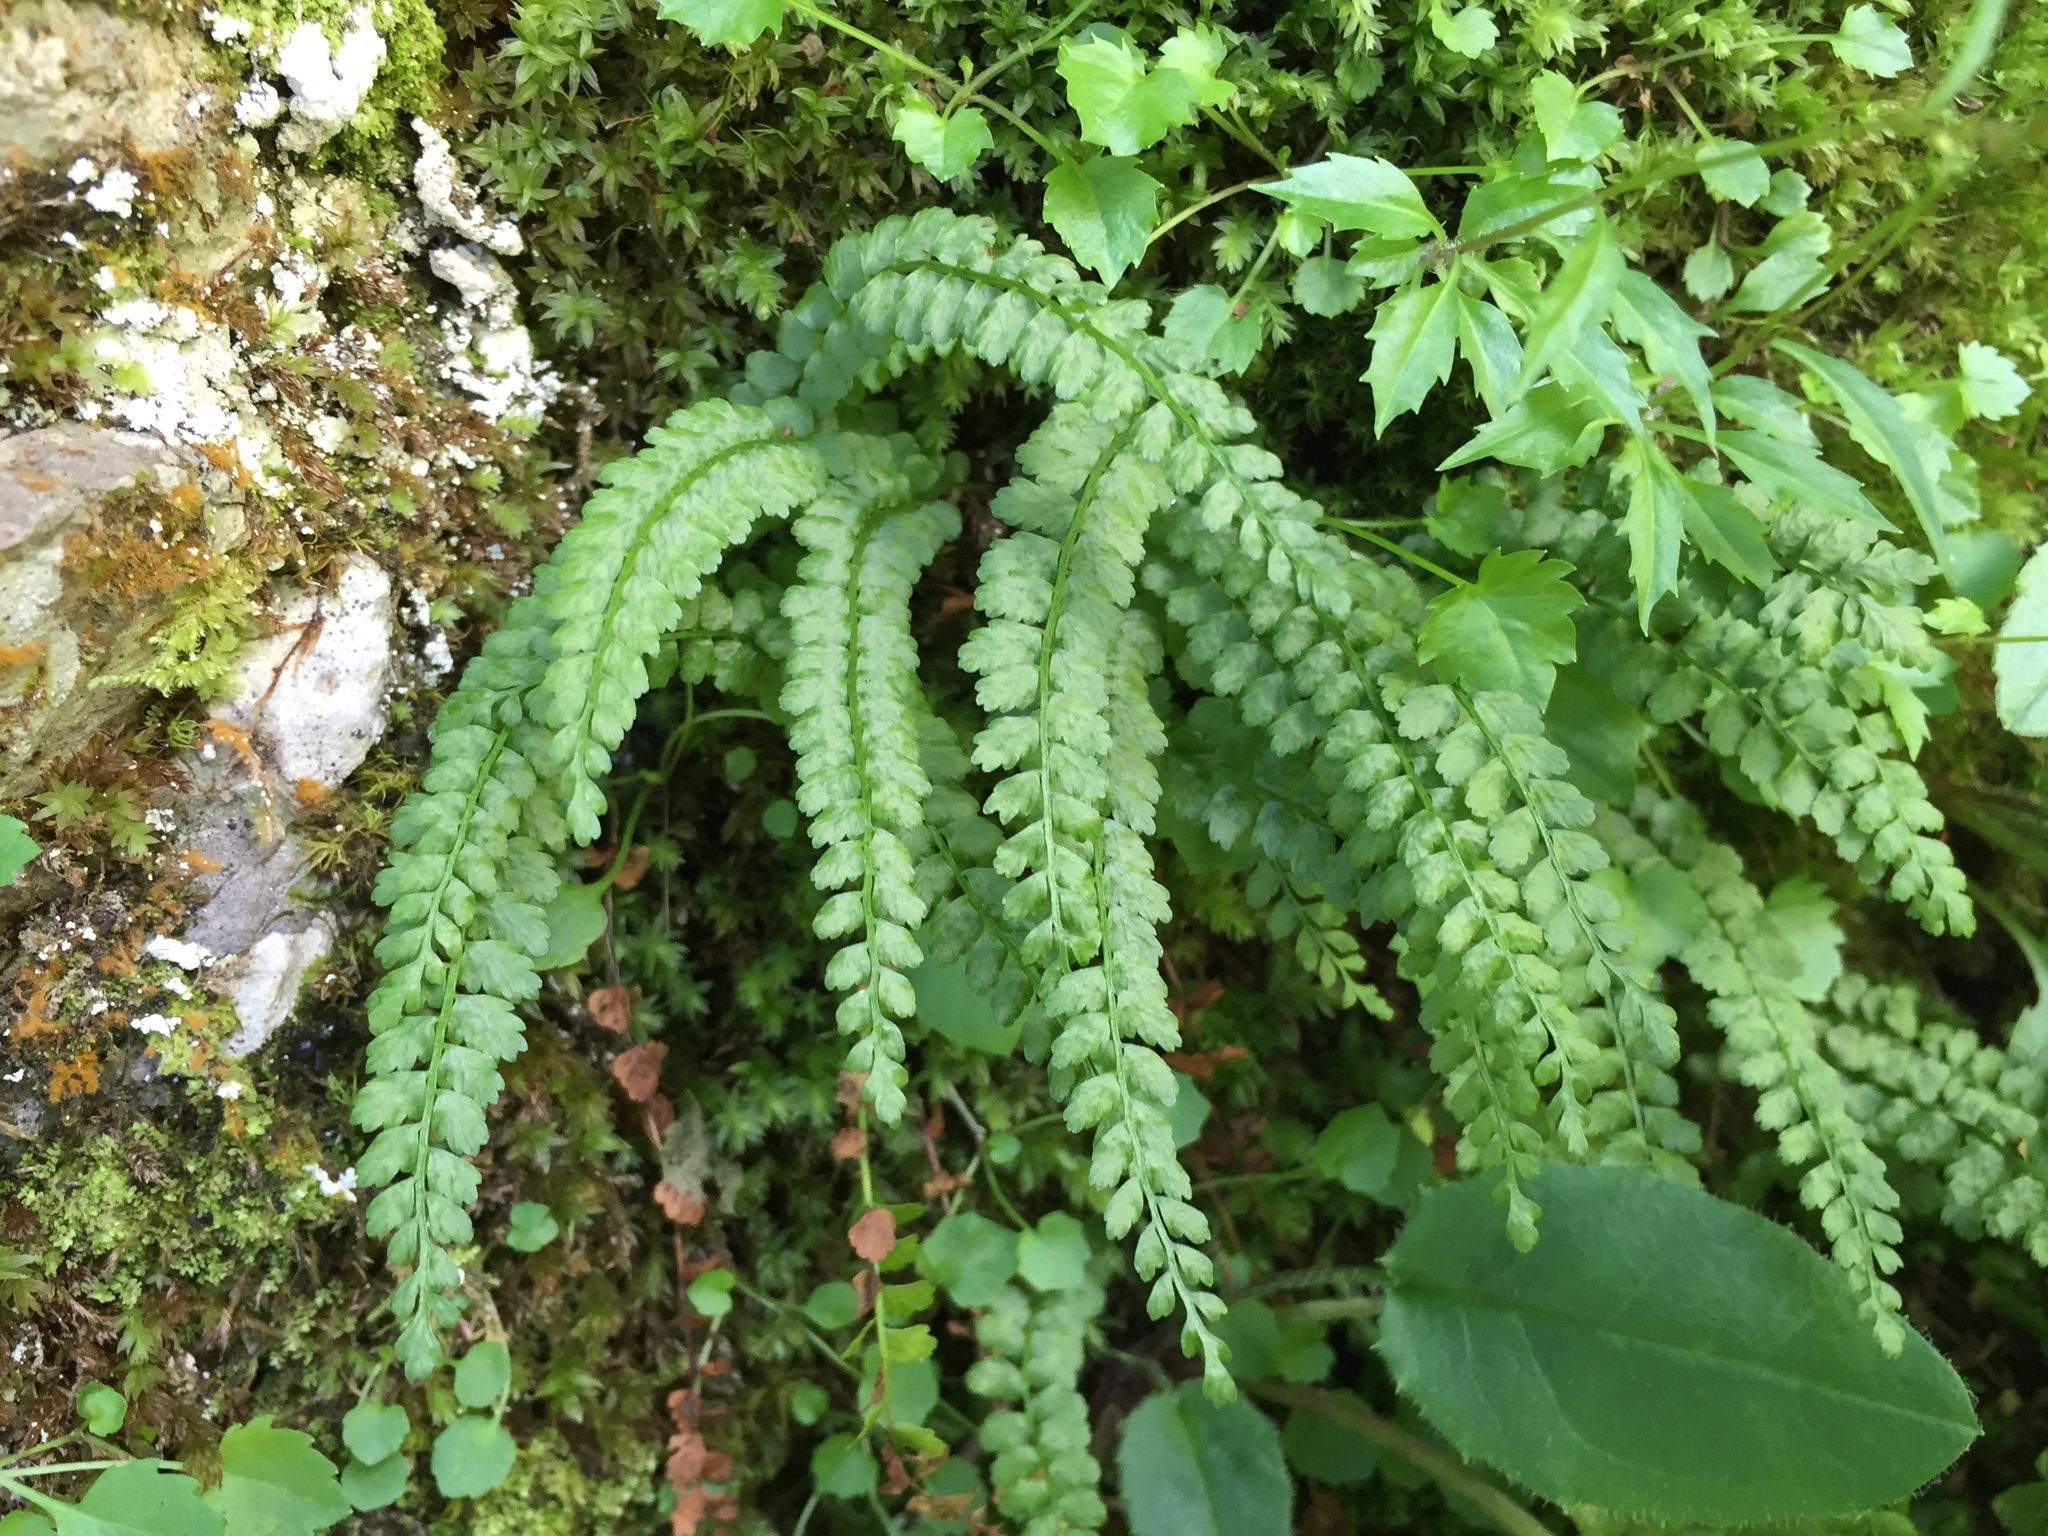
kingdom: Plantae
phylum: Tracheophyta
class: Polypodiopsida
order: Polypodiales
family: Aspleniaceae
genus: Asplenium
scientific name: Asplenium viride
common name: Green spleenwort
